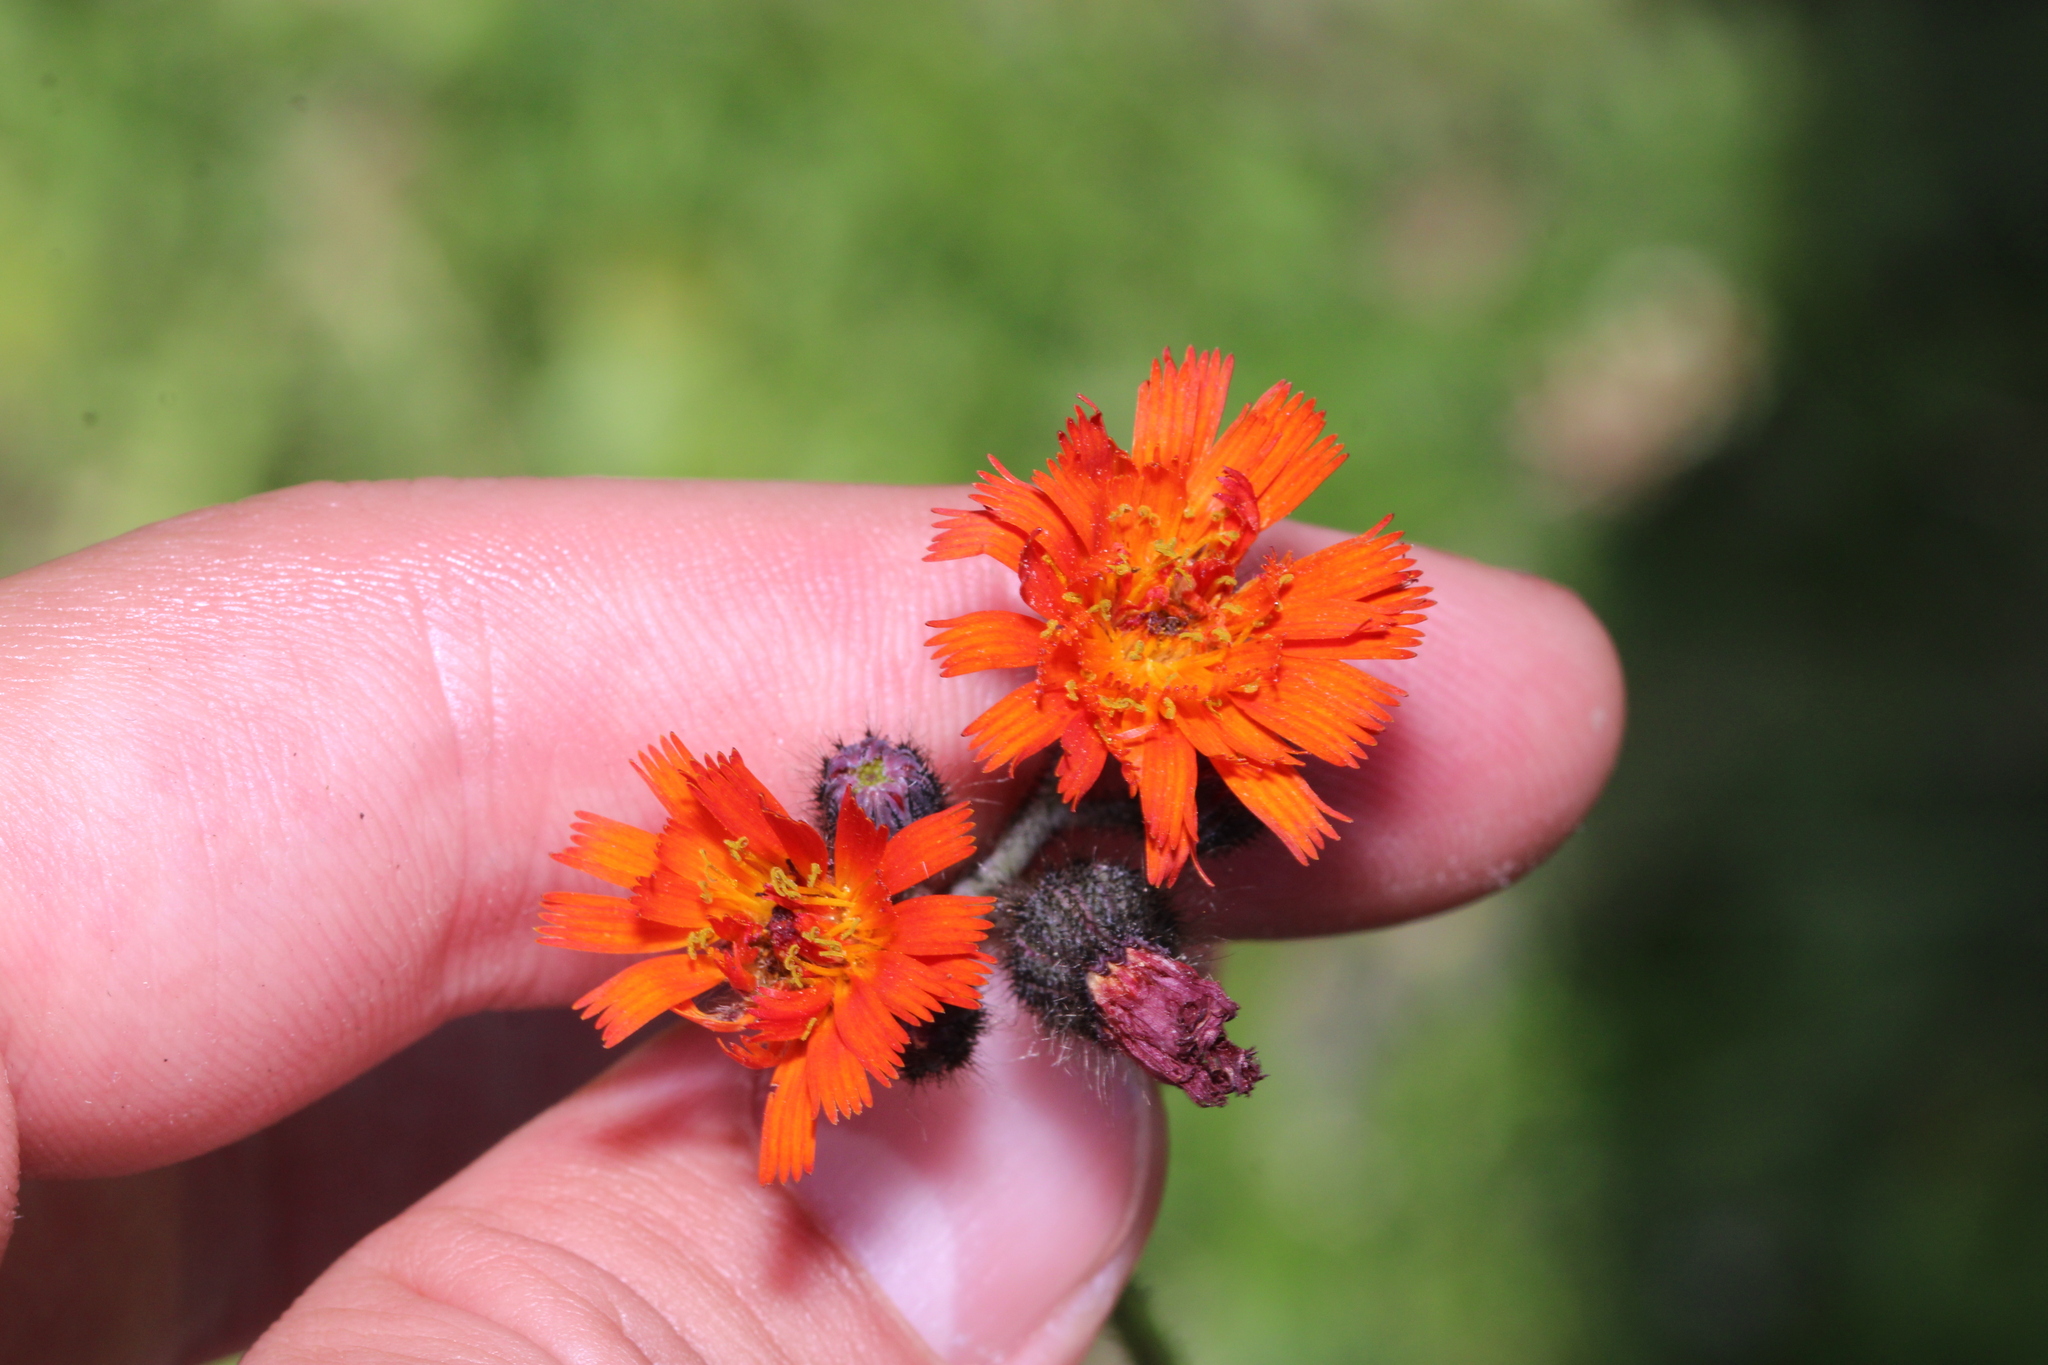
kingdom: Plantae
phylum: Tracheophyta
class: Magnoliopsida
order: Asterales
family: Asteraceae
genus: Pilosella
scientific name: Pilosella aurantiaca
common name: Fox-and-cubs
